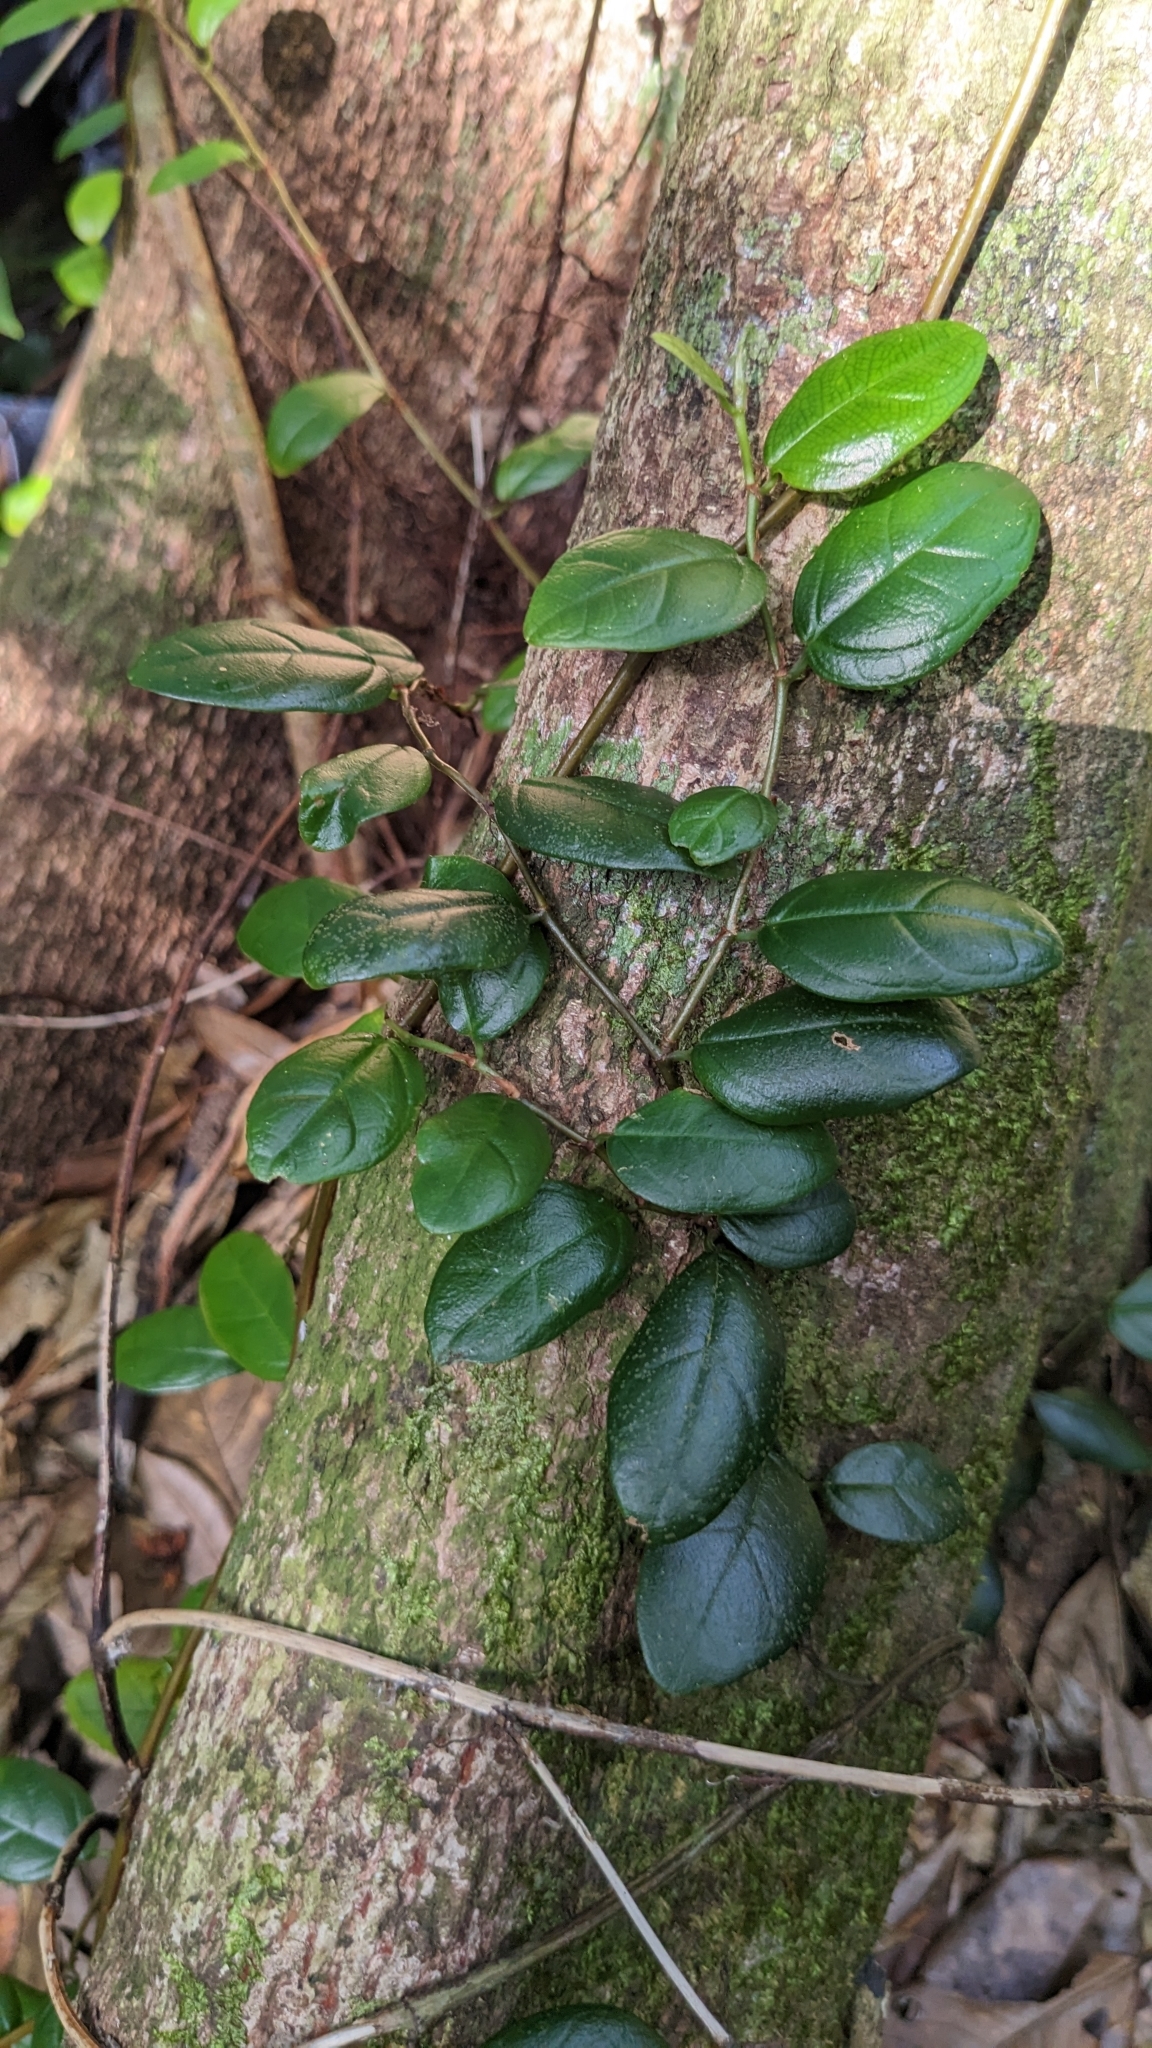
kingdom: Plantae
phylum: Tracheophyta
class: Magnoliopsida
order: Rosales
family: Moraceae
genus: Ficus
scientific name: Ficus punctata
